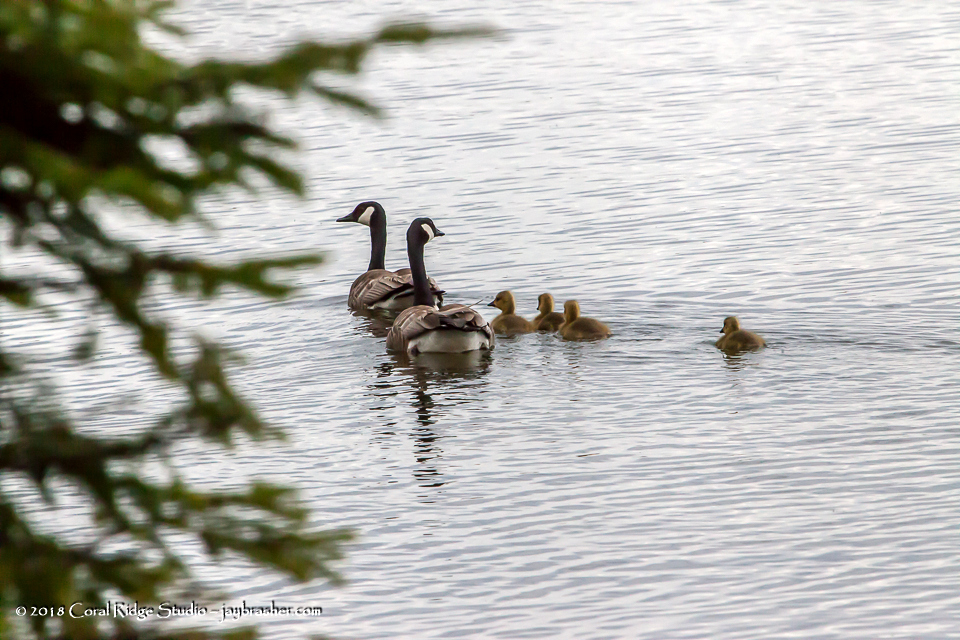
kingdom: Animalia
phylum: Chordata
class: Aves
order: Anseriformes
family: Anatidae
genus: Branta
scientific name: Branta canadensis
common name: Canada goose
